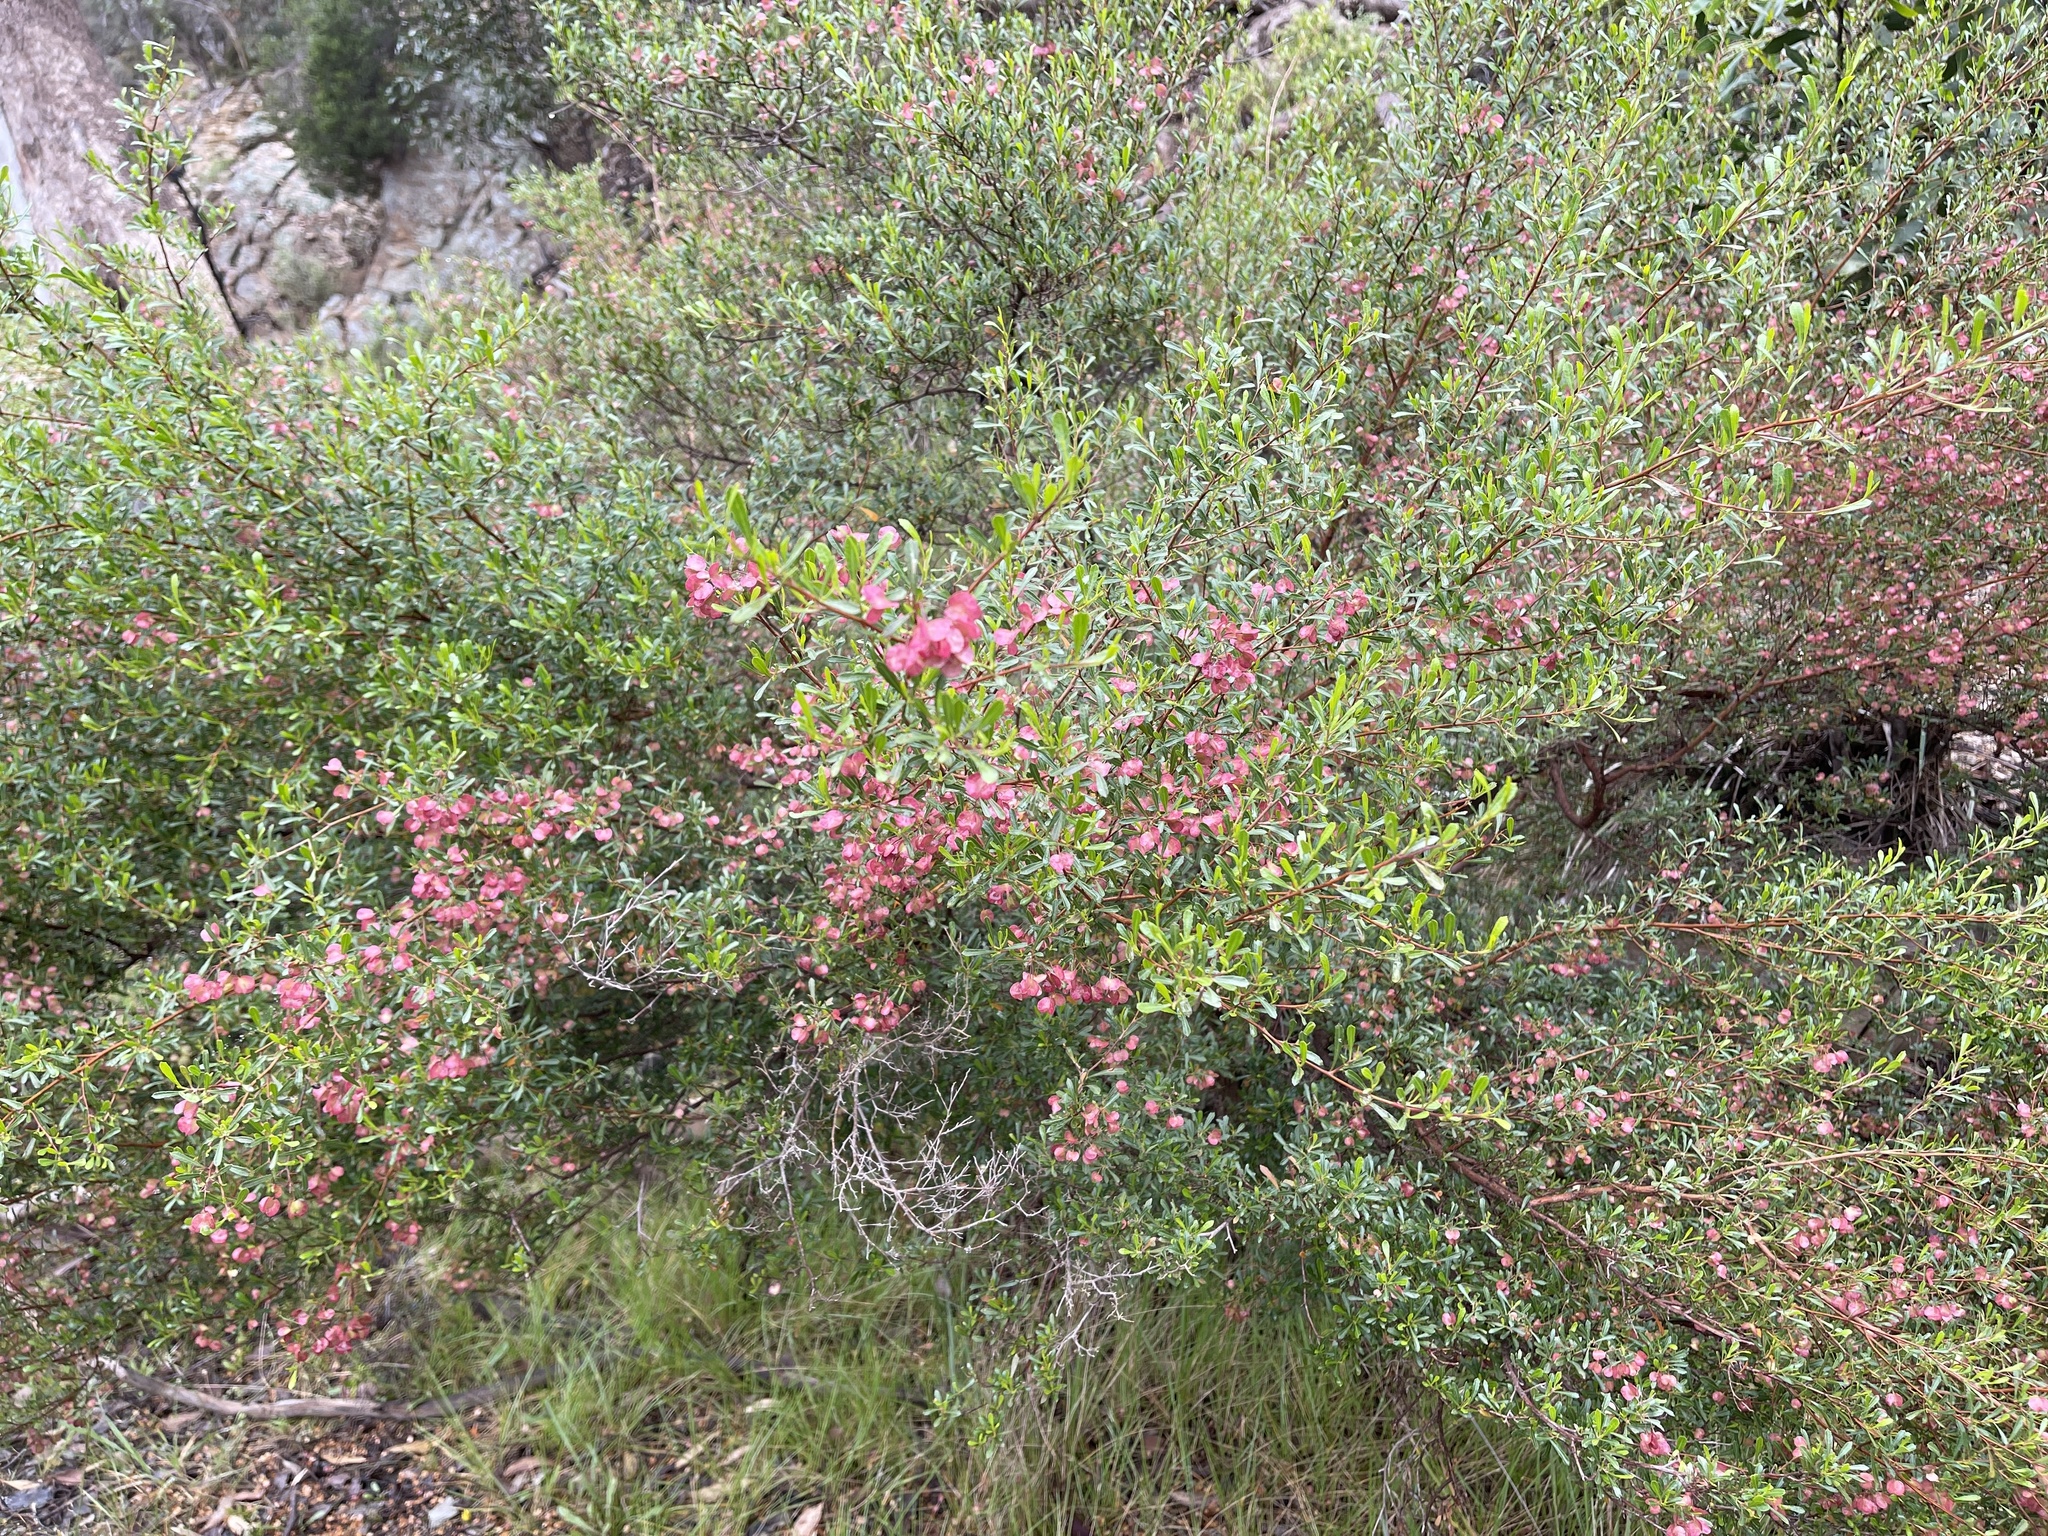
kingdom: Plantae
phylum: Tracheophyta
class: Magnoliopsida
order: Sapindales
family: Sapindaceae
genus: Dodonaea
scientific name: Dodonaea viscosa
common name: Hopbush
